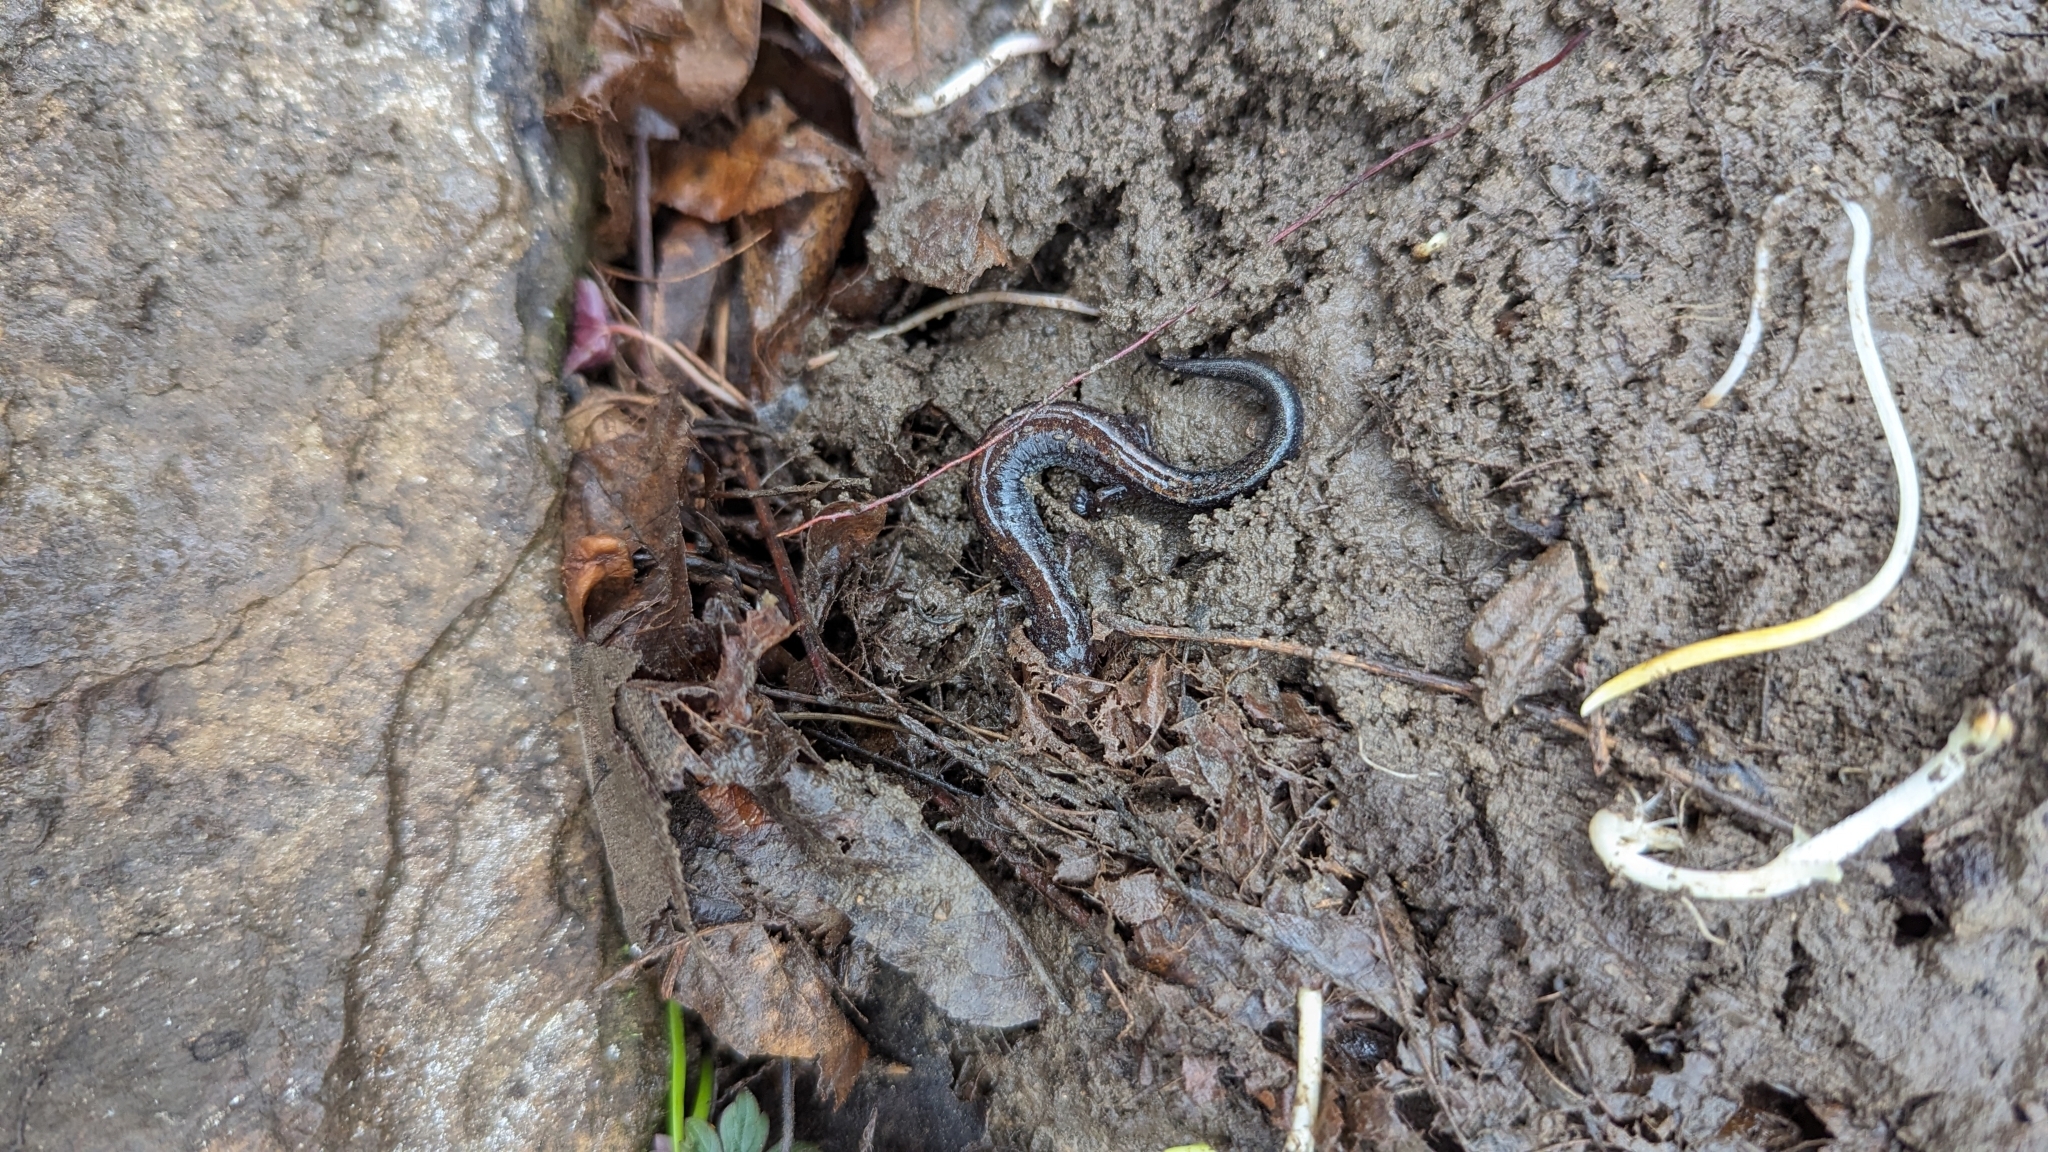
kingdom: Animalia
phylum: Chordata
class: Amphibia
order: Caudata
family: Plethodontidae
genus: Plethodon
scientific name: Plethodon cinereus
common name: Redback salamander
